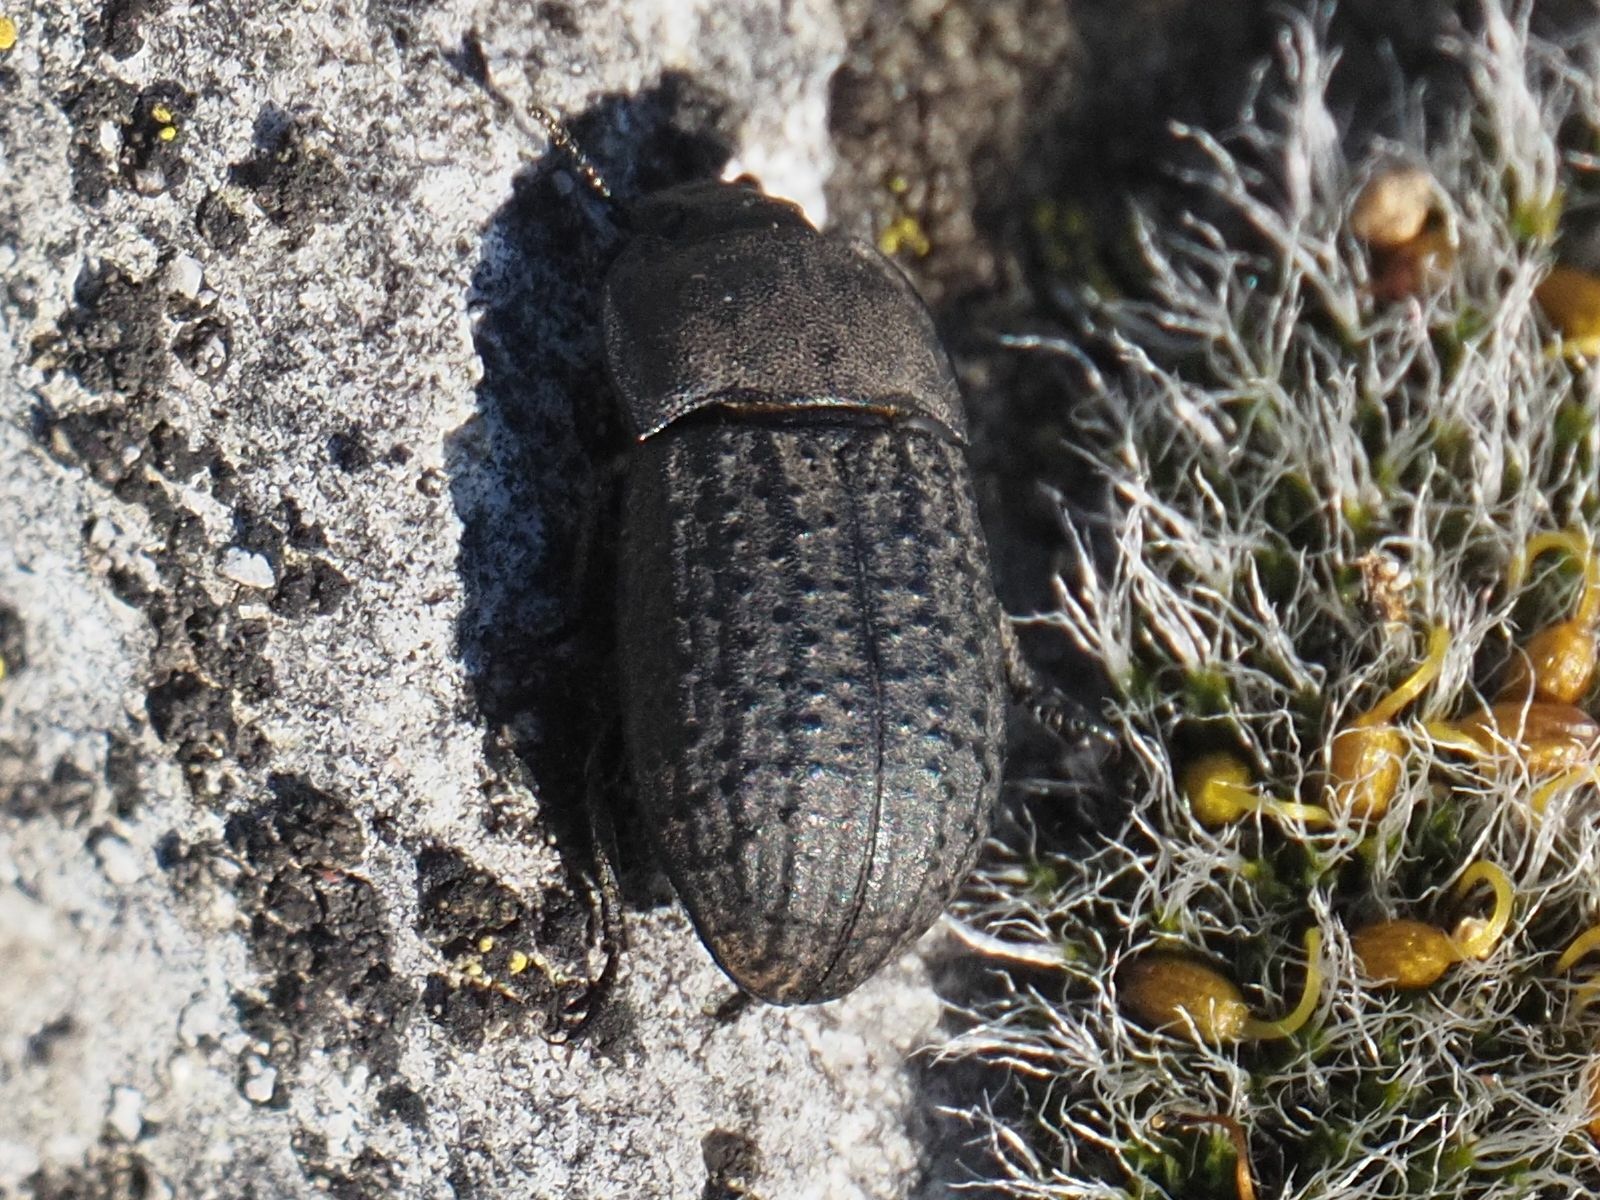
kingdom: Animalia
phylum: Arthropoda
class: Insecta
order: Coleoptera
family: Tenebrionidae
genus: Opatrum
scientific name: Opatrum sabulosum
